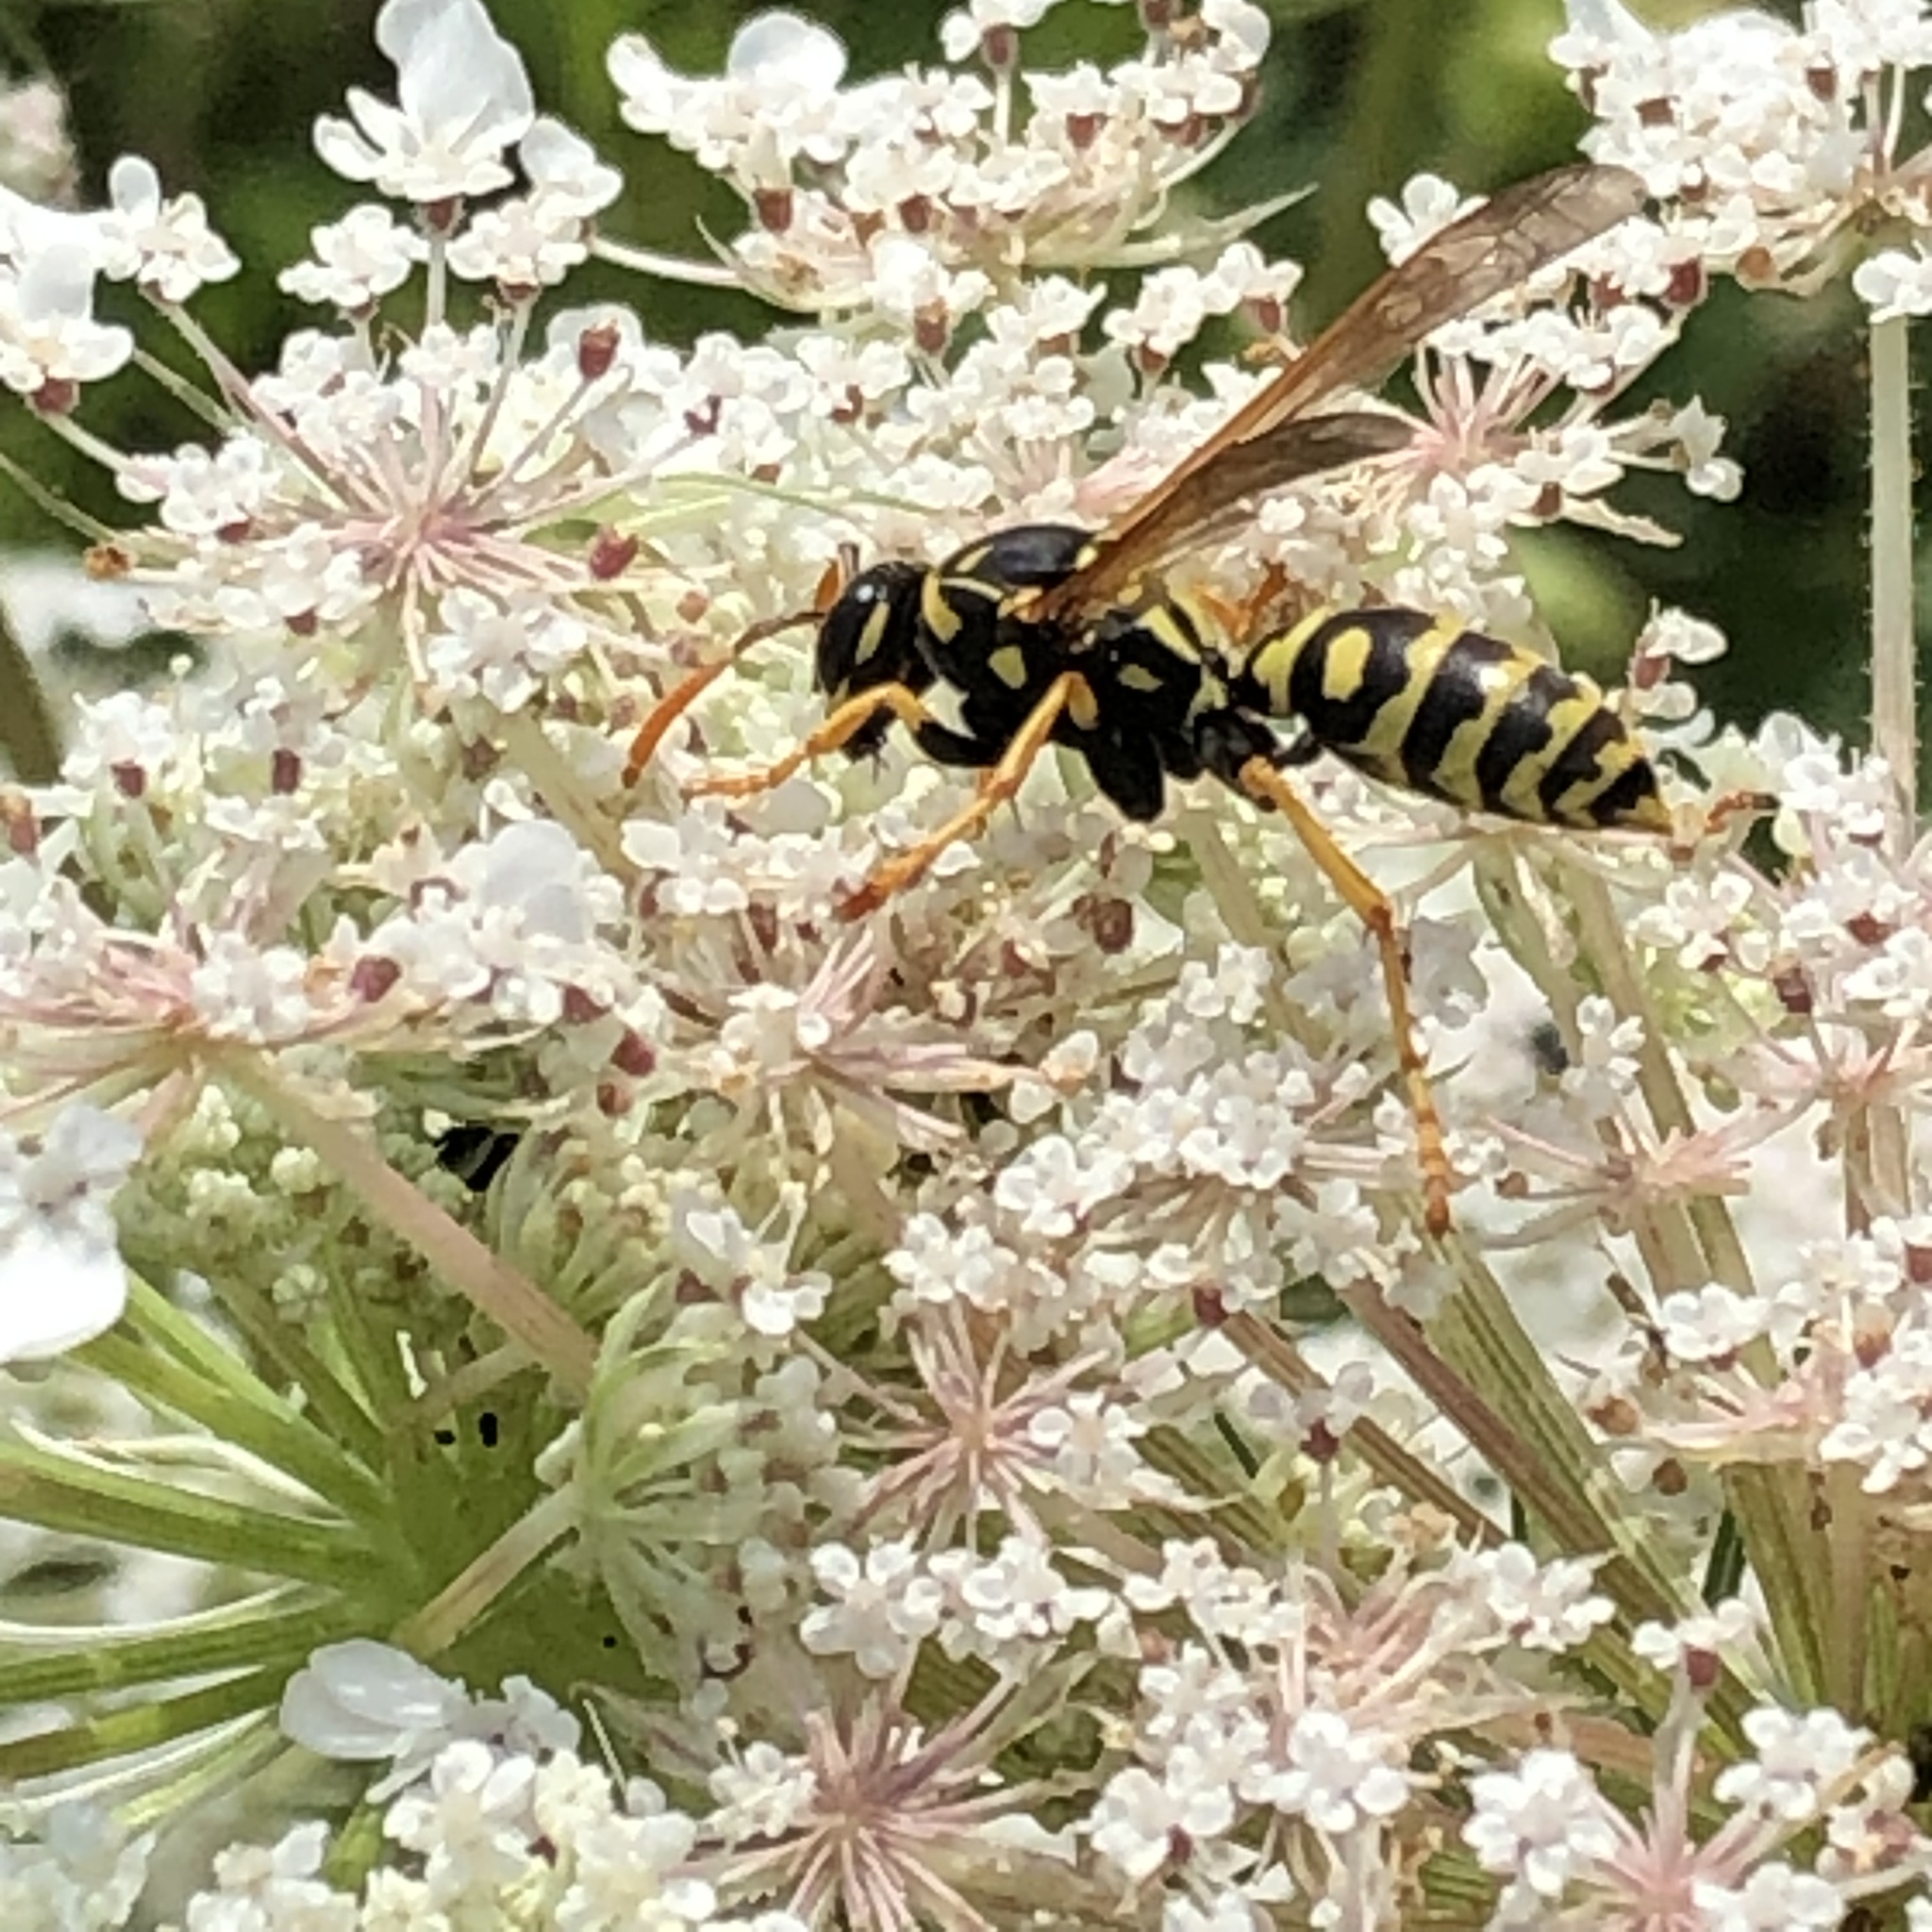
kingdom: Animalia
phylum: Arthropoda
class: Insecta
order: Hymenoptera
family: Eumenidae
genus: Polistes
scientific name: Polistes dominula
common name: Paper wasp
